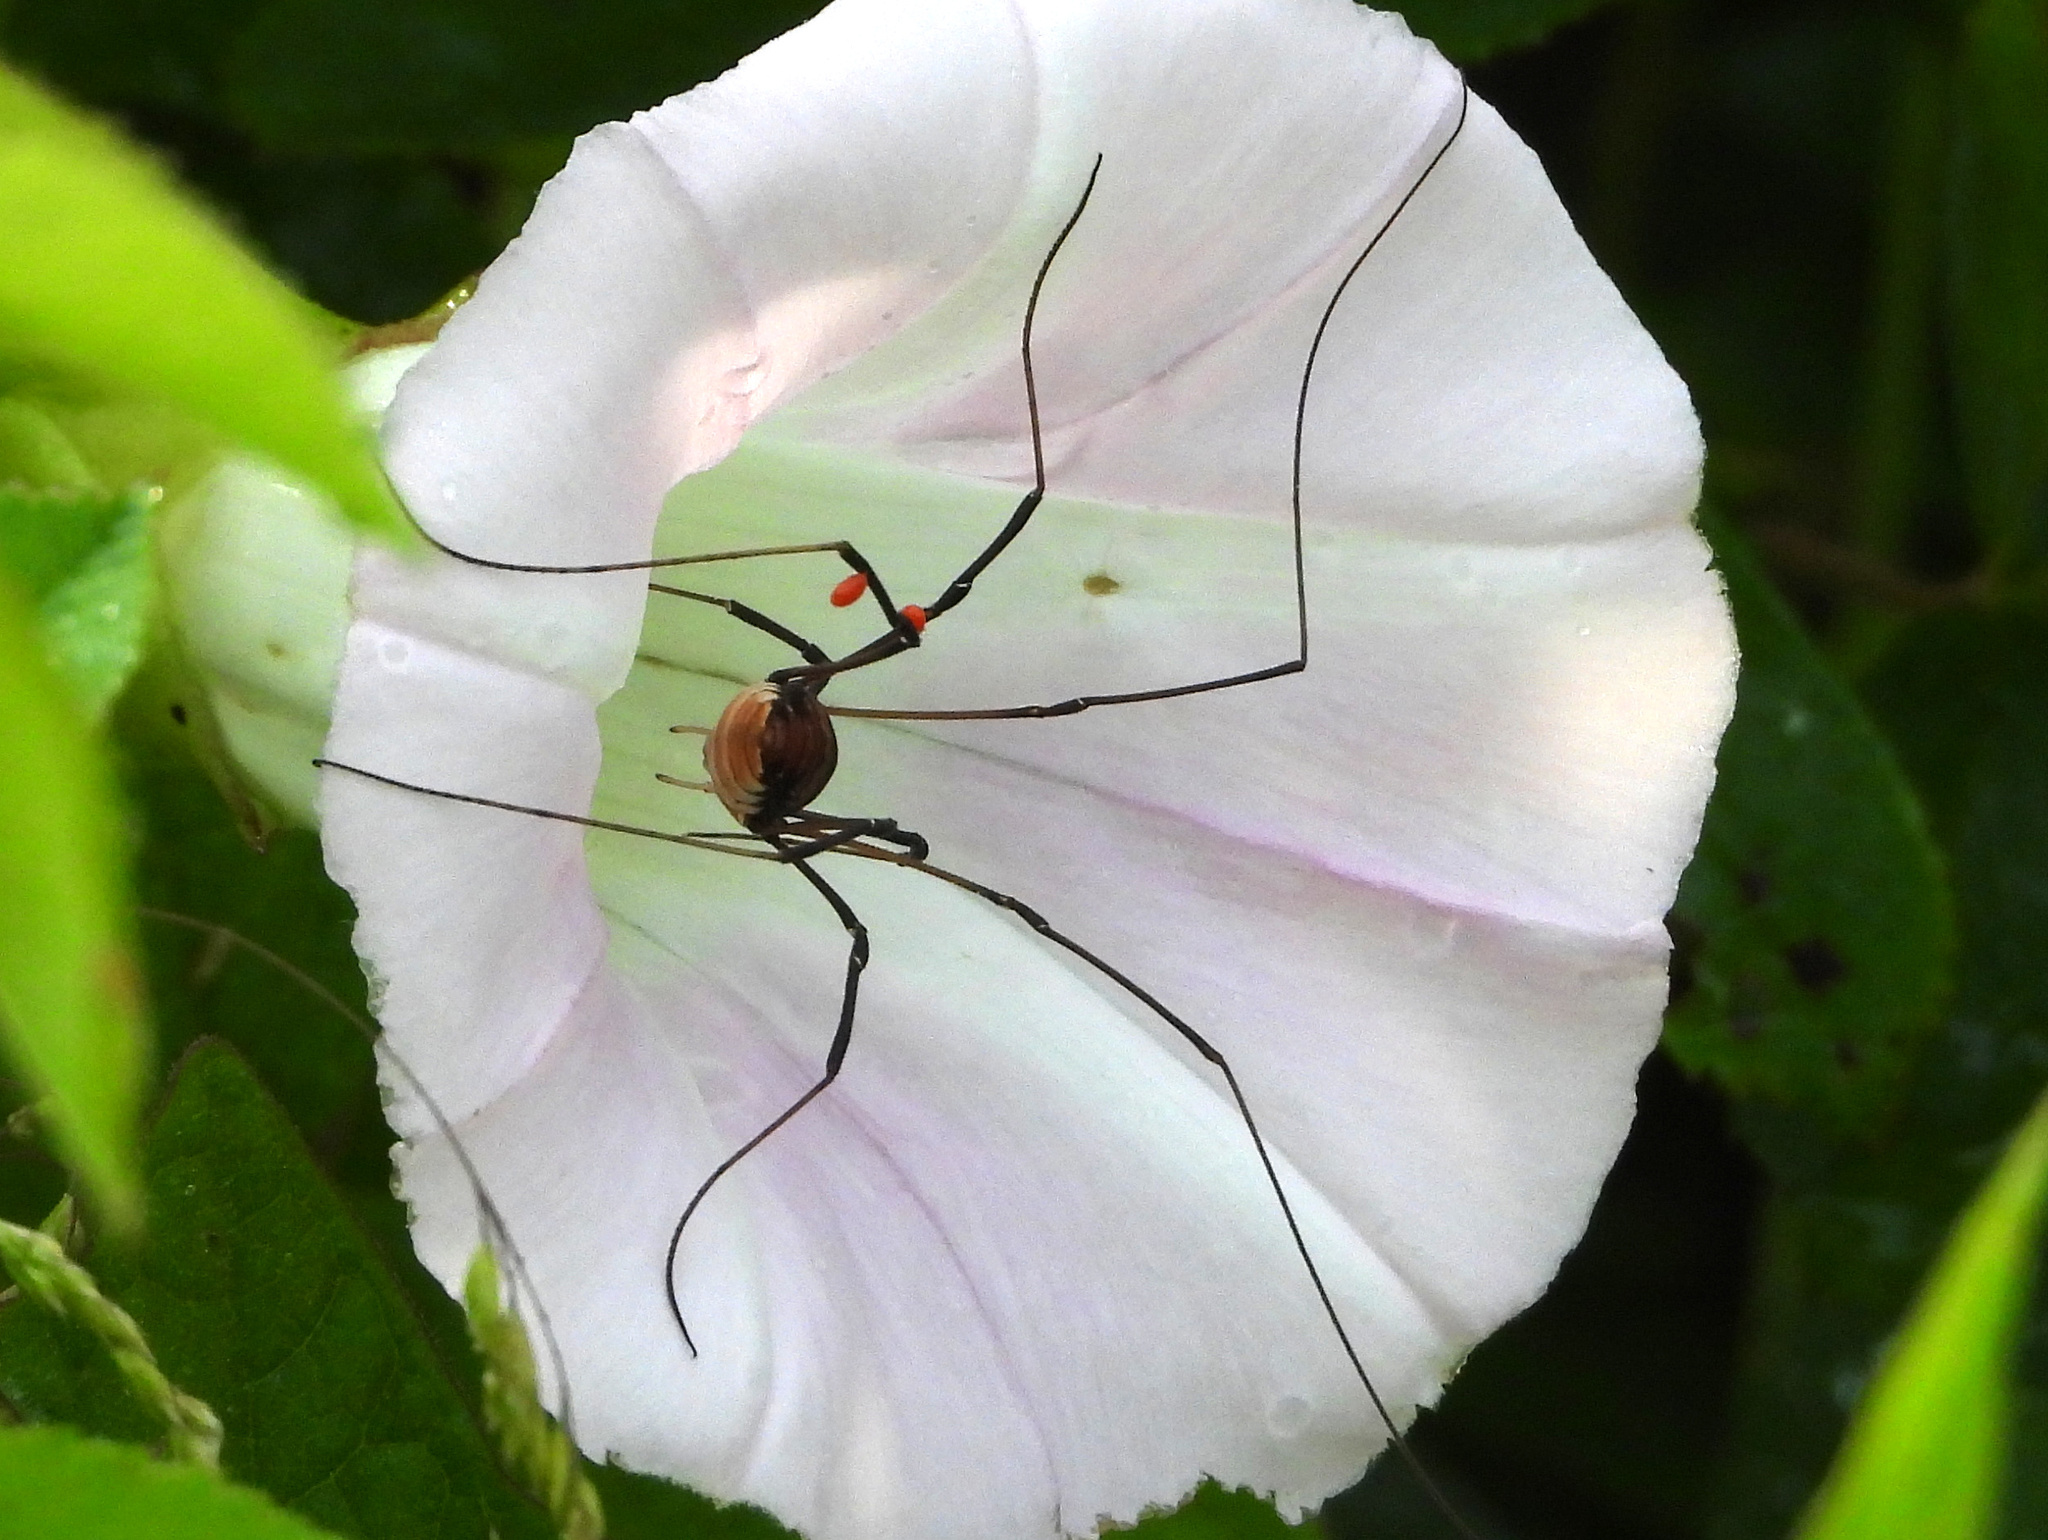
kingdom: Animalia
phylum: Arthropoda
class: Arachnida
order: Opiliones
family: Sclerosomatidae
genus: Leiobunum
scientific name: Leiobunum verrucosum
